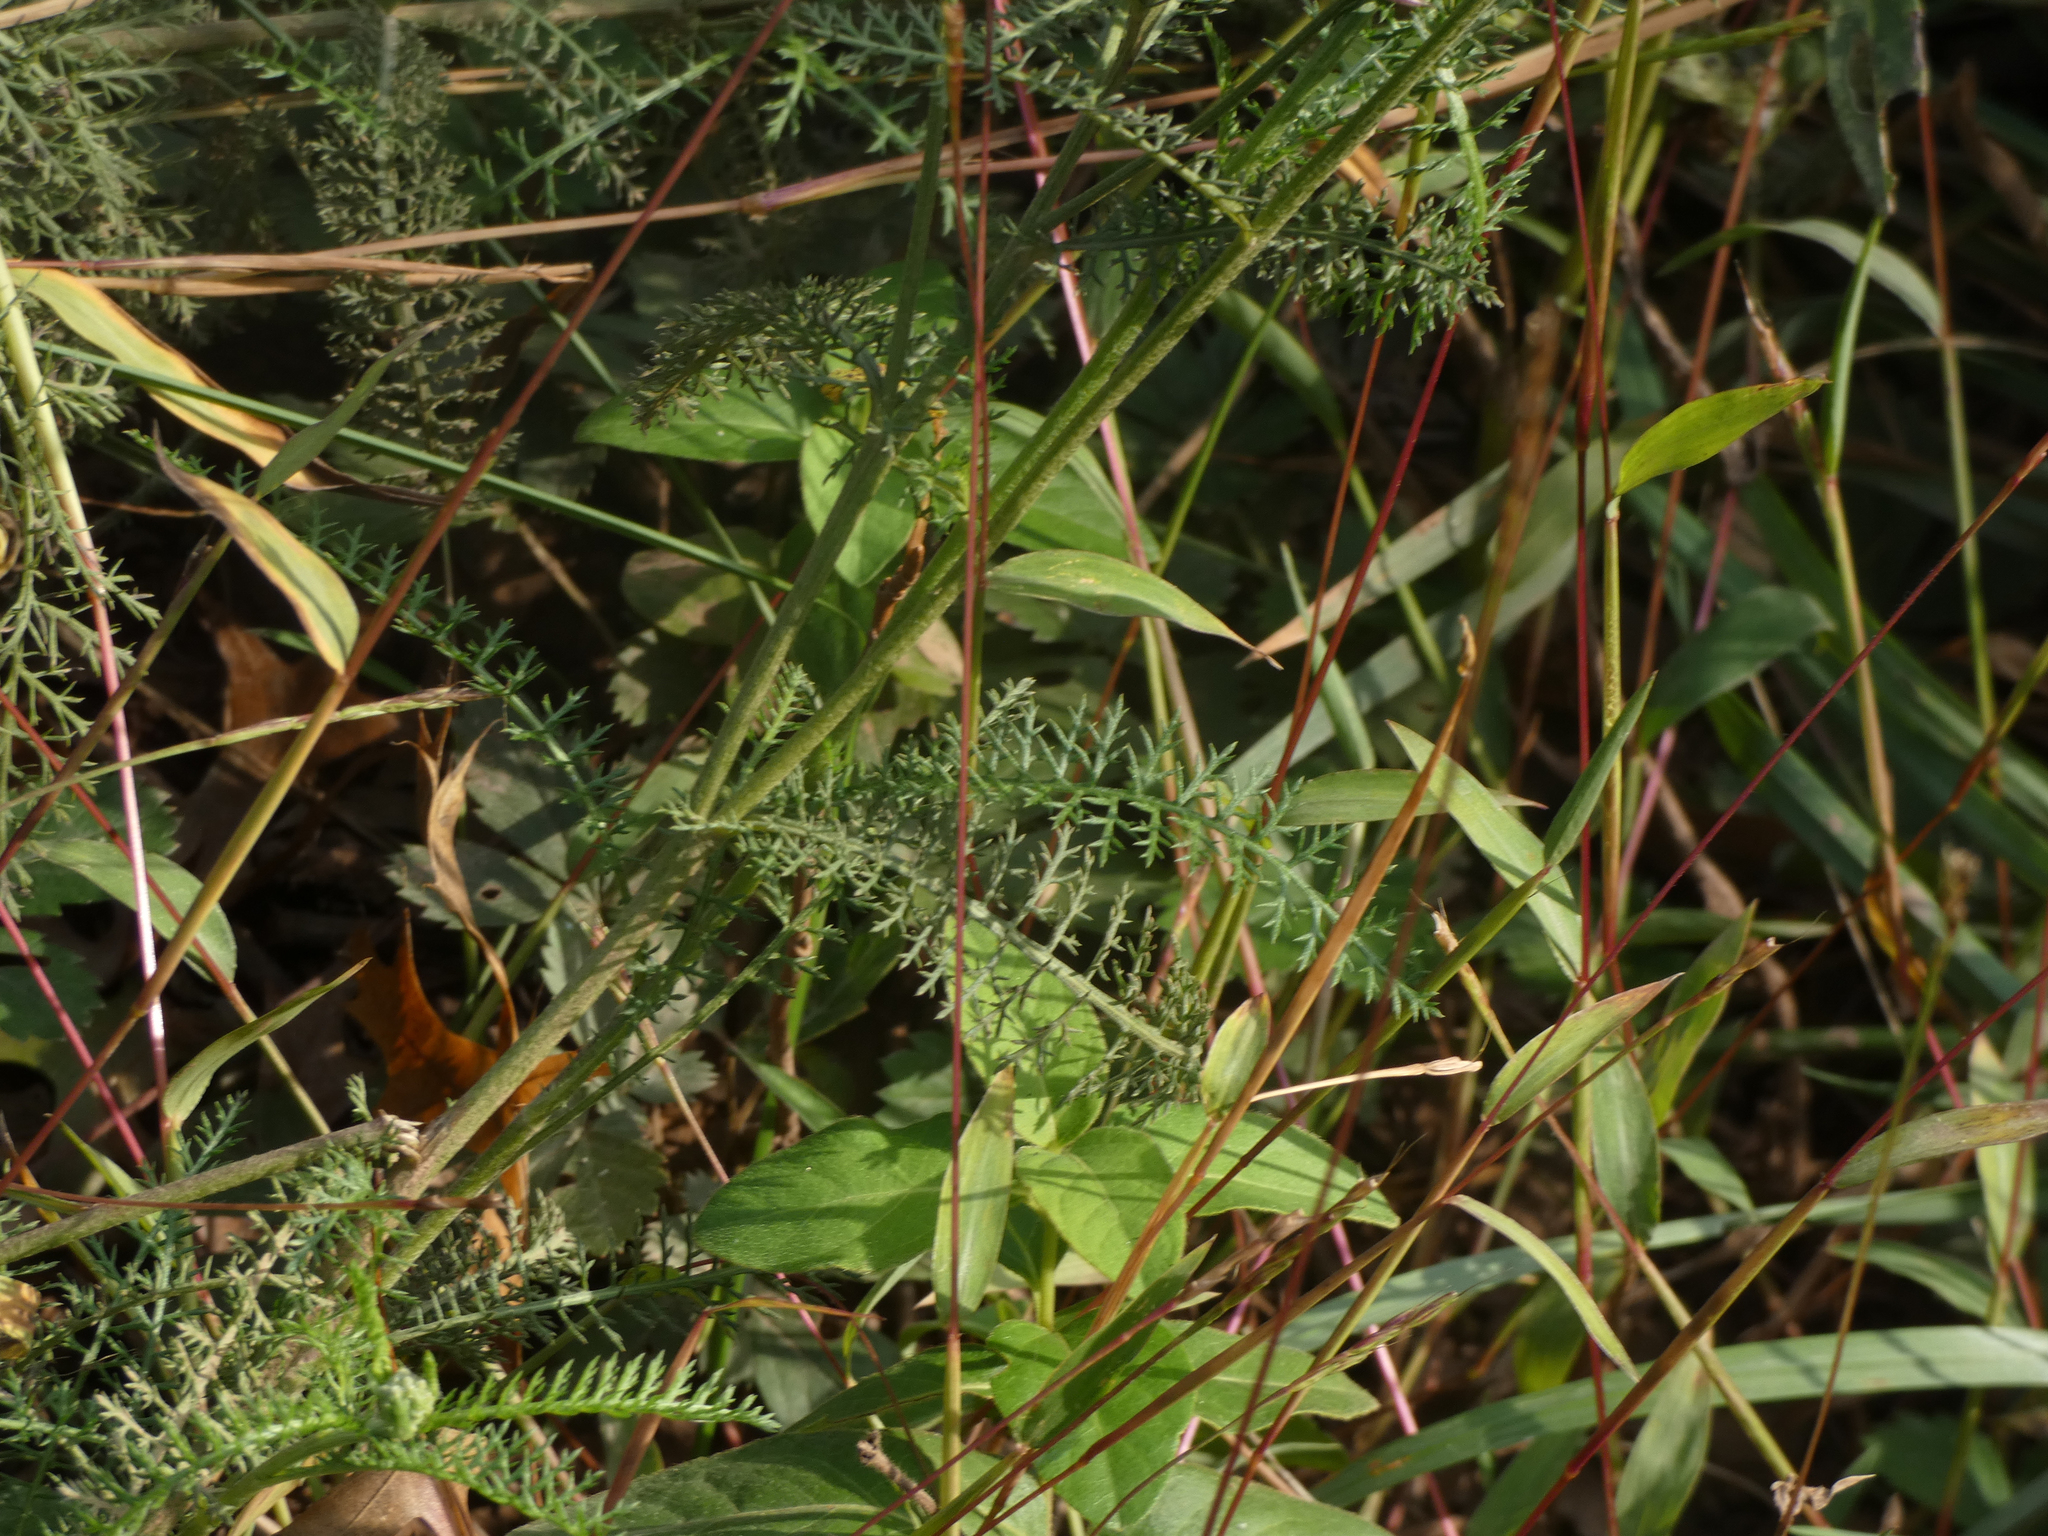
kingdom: Plantae
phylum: Tracheophyta
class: Magnoliopsida
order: Asterales
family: Asteraceae
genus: Achillea
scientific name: Achillea millefolium
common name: Yarrow
